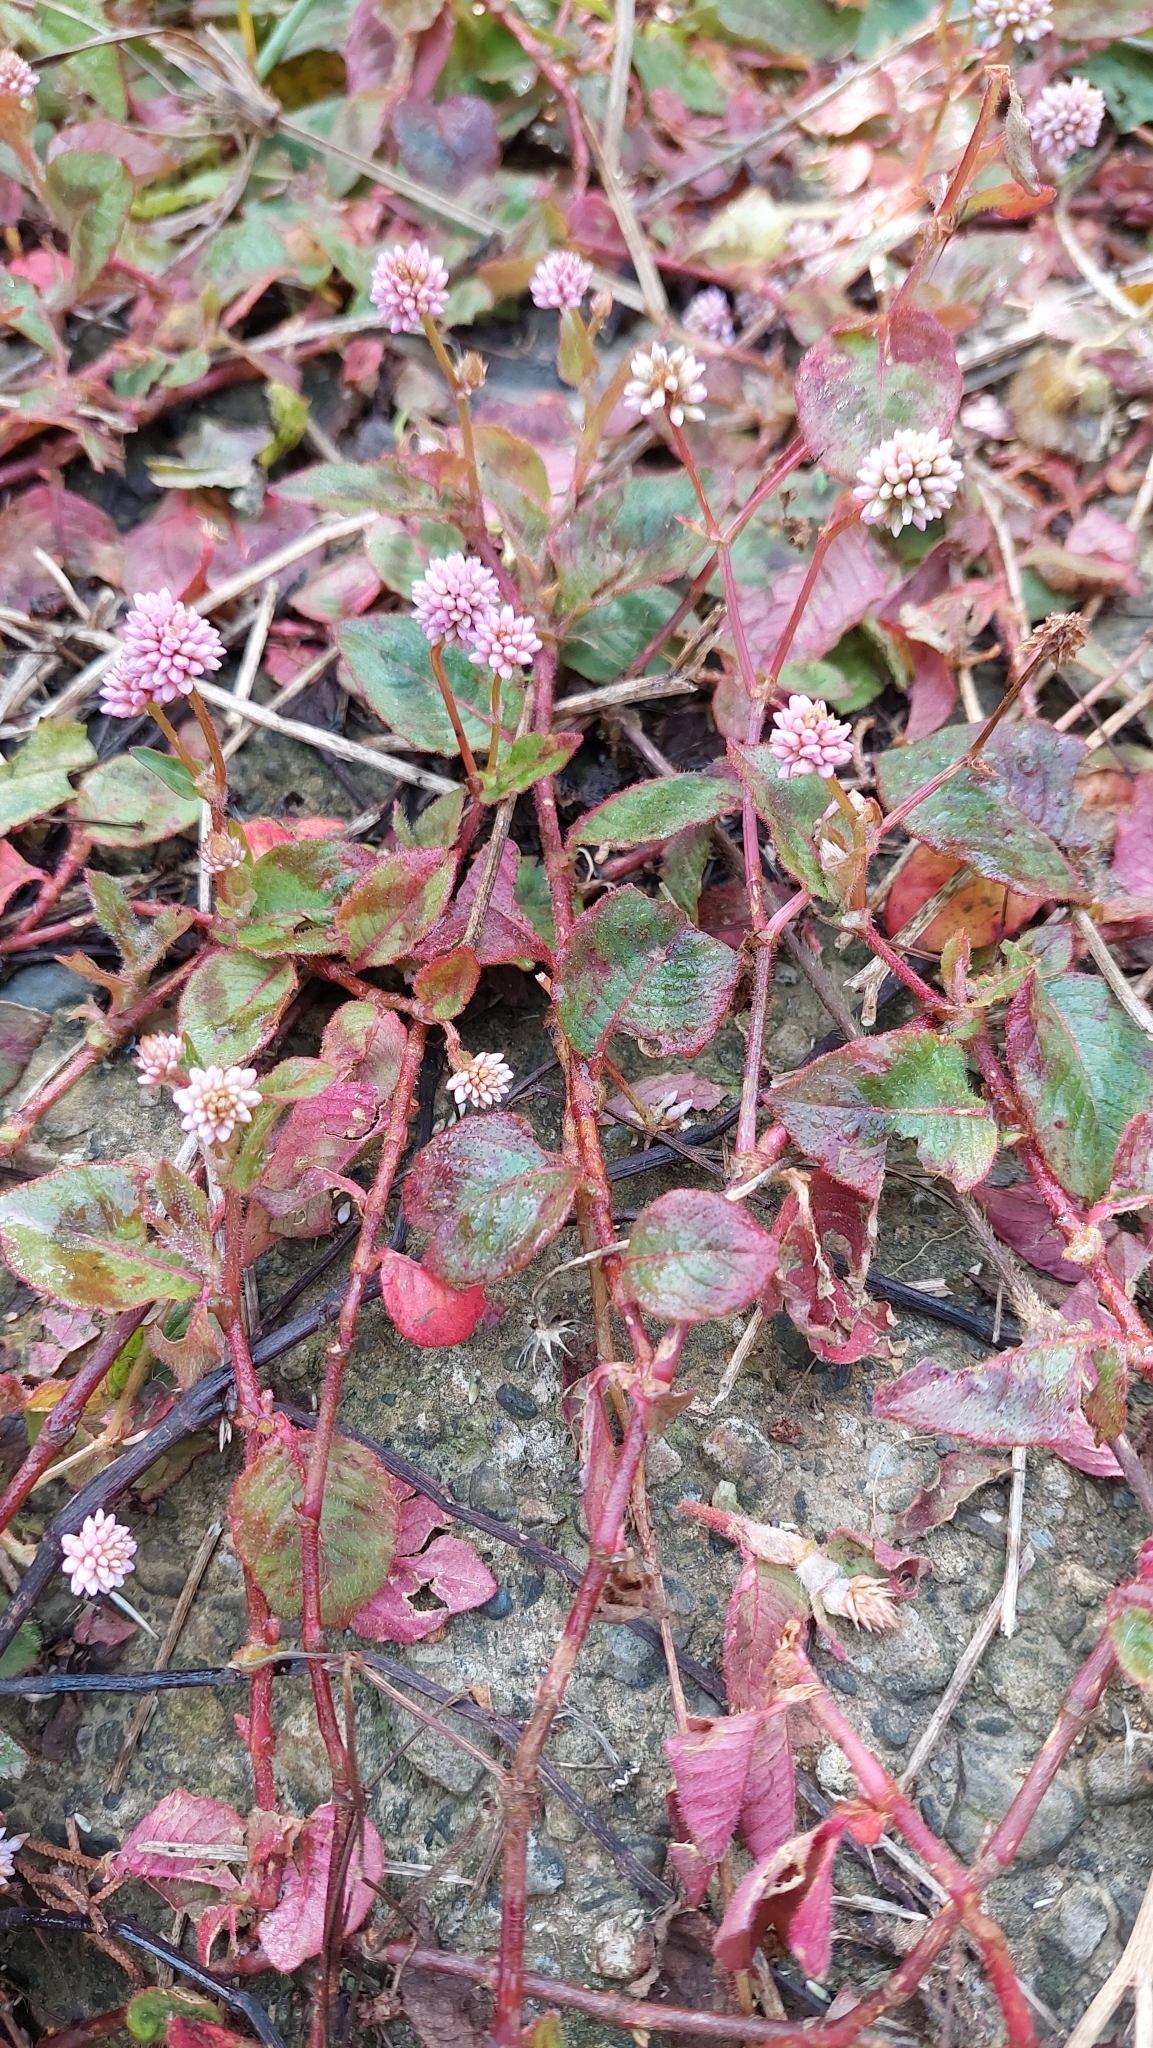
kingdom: Plantae
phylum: Tracheophyta
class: Magnoliopsida
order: Caryophyllales
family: Polygonaceae
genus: Persicaria
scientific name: Persicaria capitata
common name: Pinkhead smartweed
